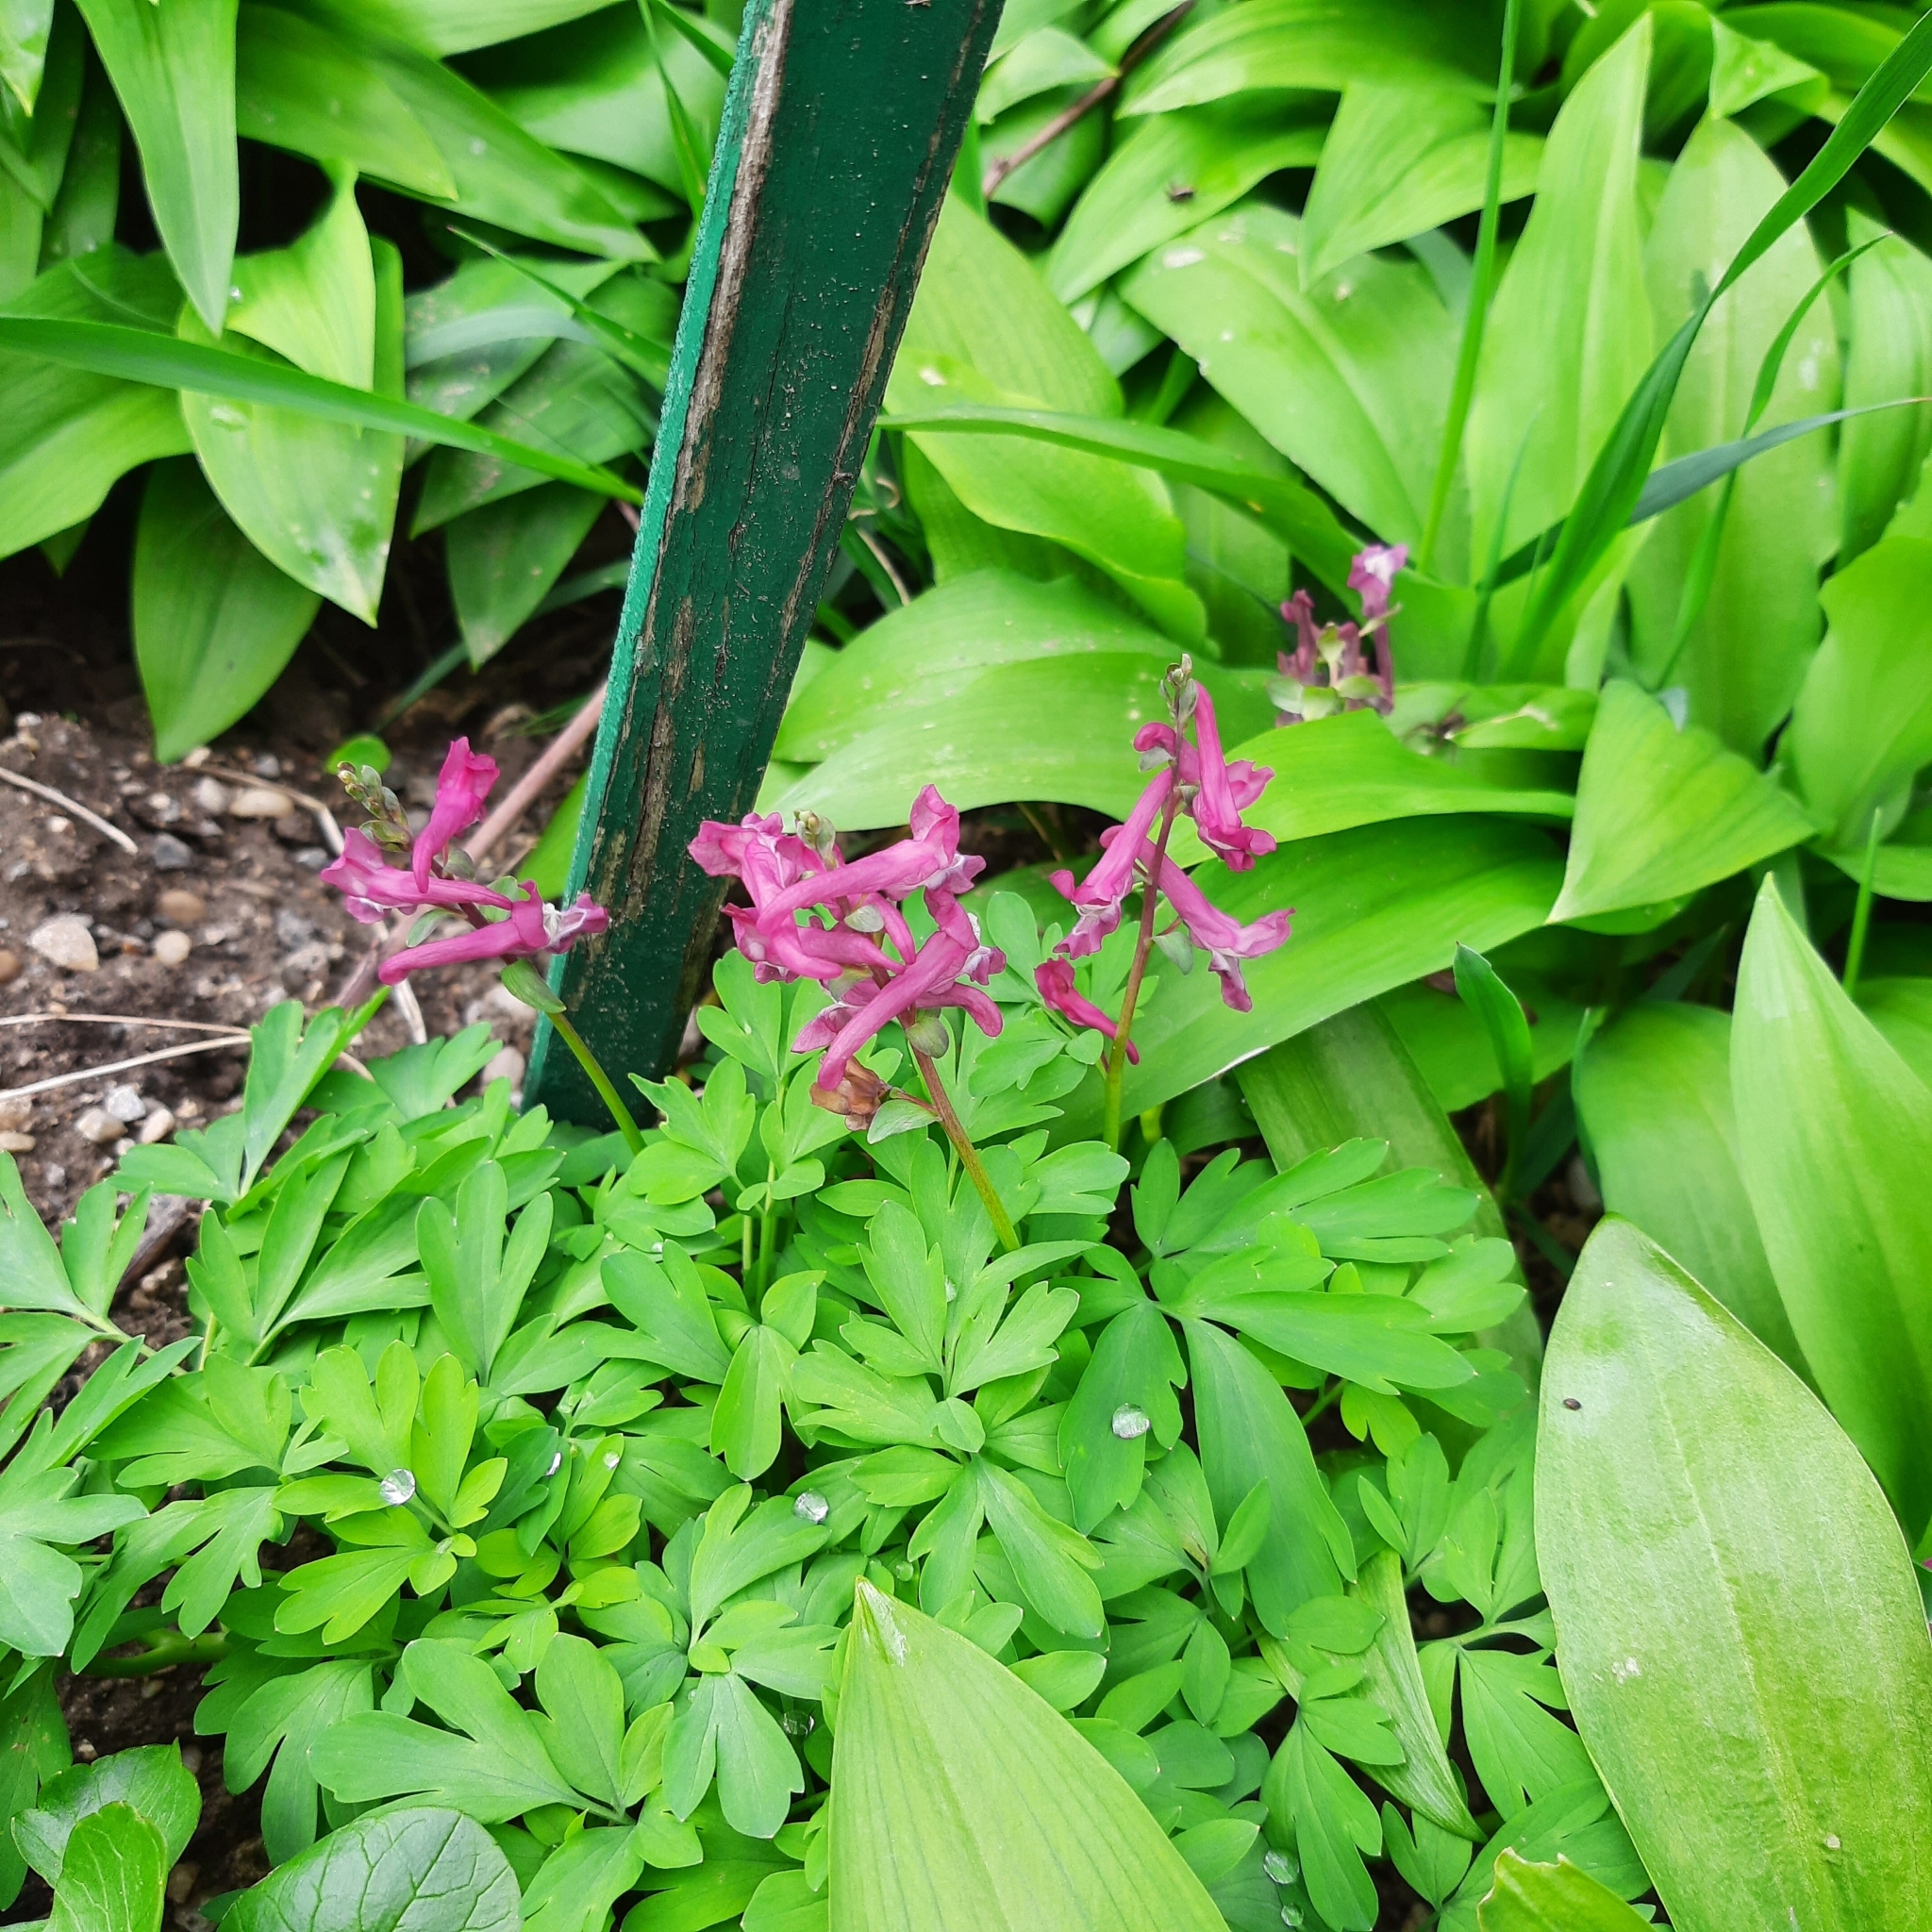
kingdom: Plantae
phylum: Tracheophyta
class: Magnoliopsida
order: Ranunculales
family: Papaveraceae
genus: Corydalis
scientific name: Corydalis cava
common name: Hollowroot
